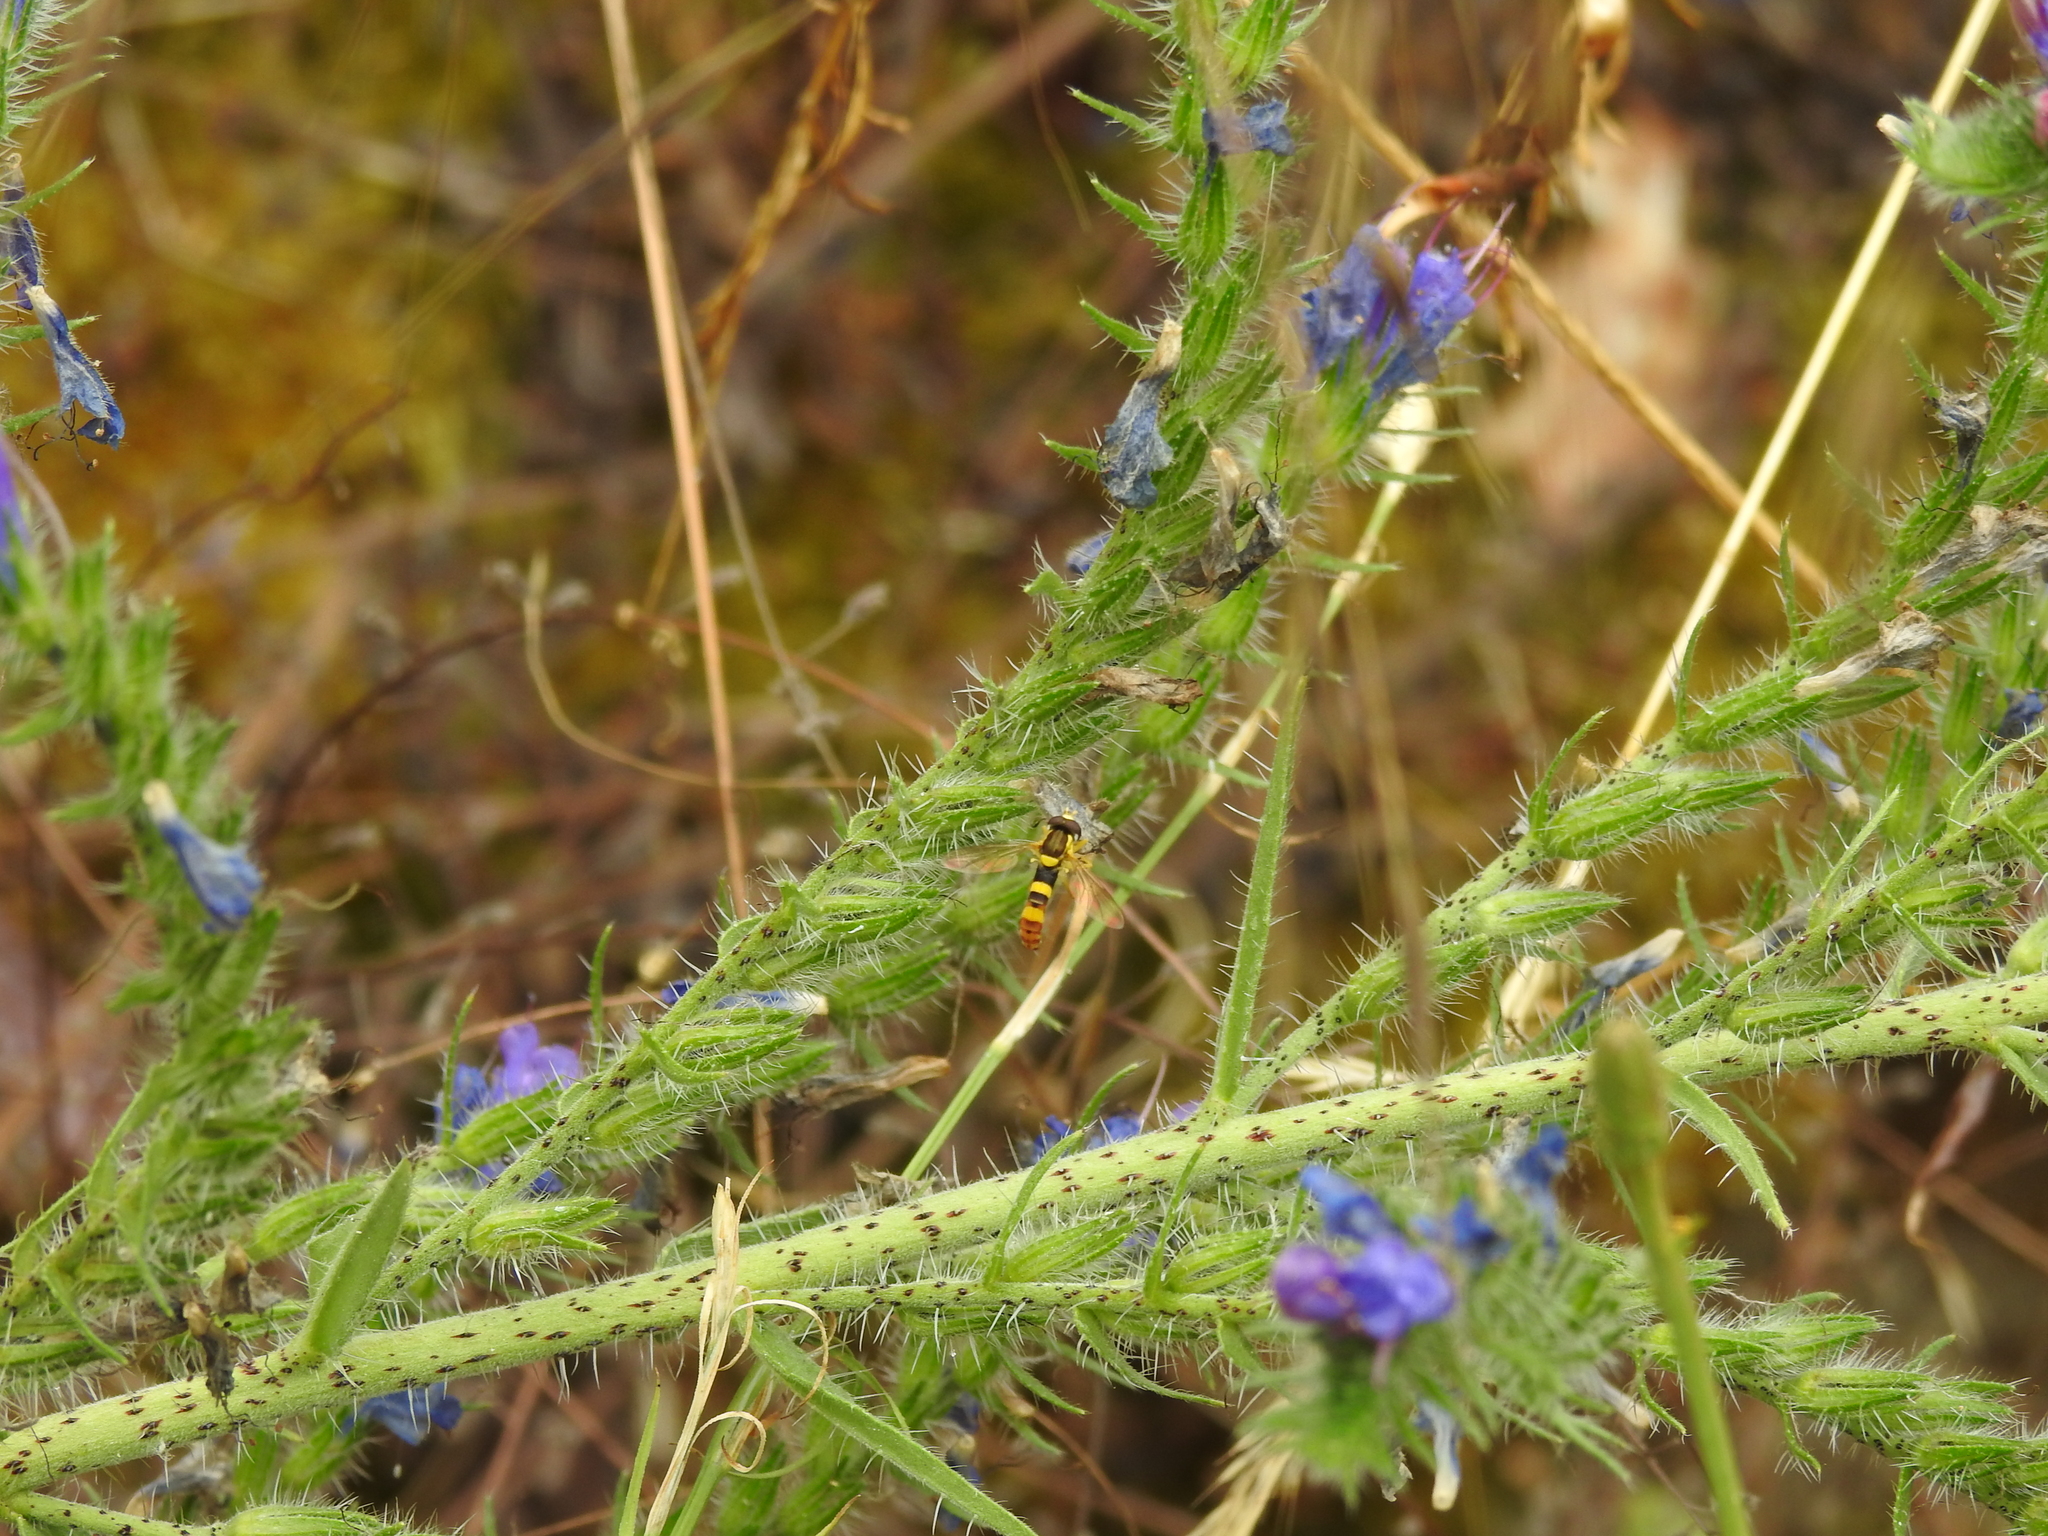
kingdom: Plantae
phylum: Tracheophyta
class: Magnoliopsida
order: Boraginales
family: Boraginaceae
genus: Echium
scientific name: Echium vulgare
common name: Common viper's bugloss
